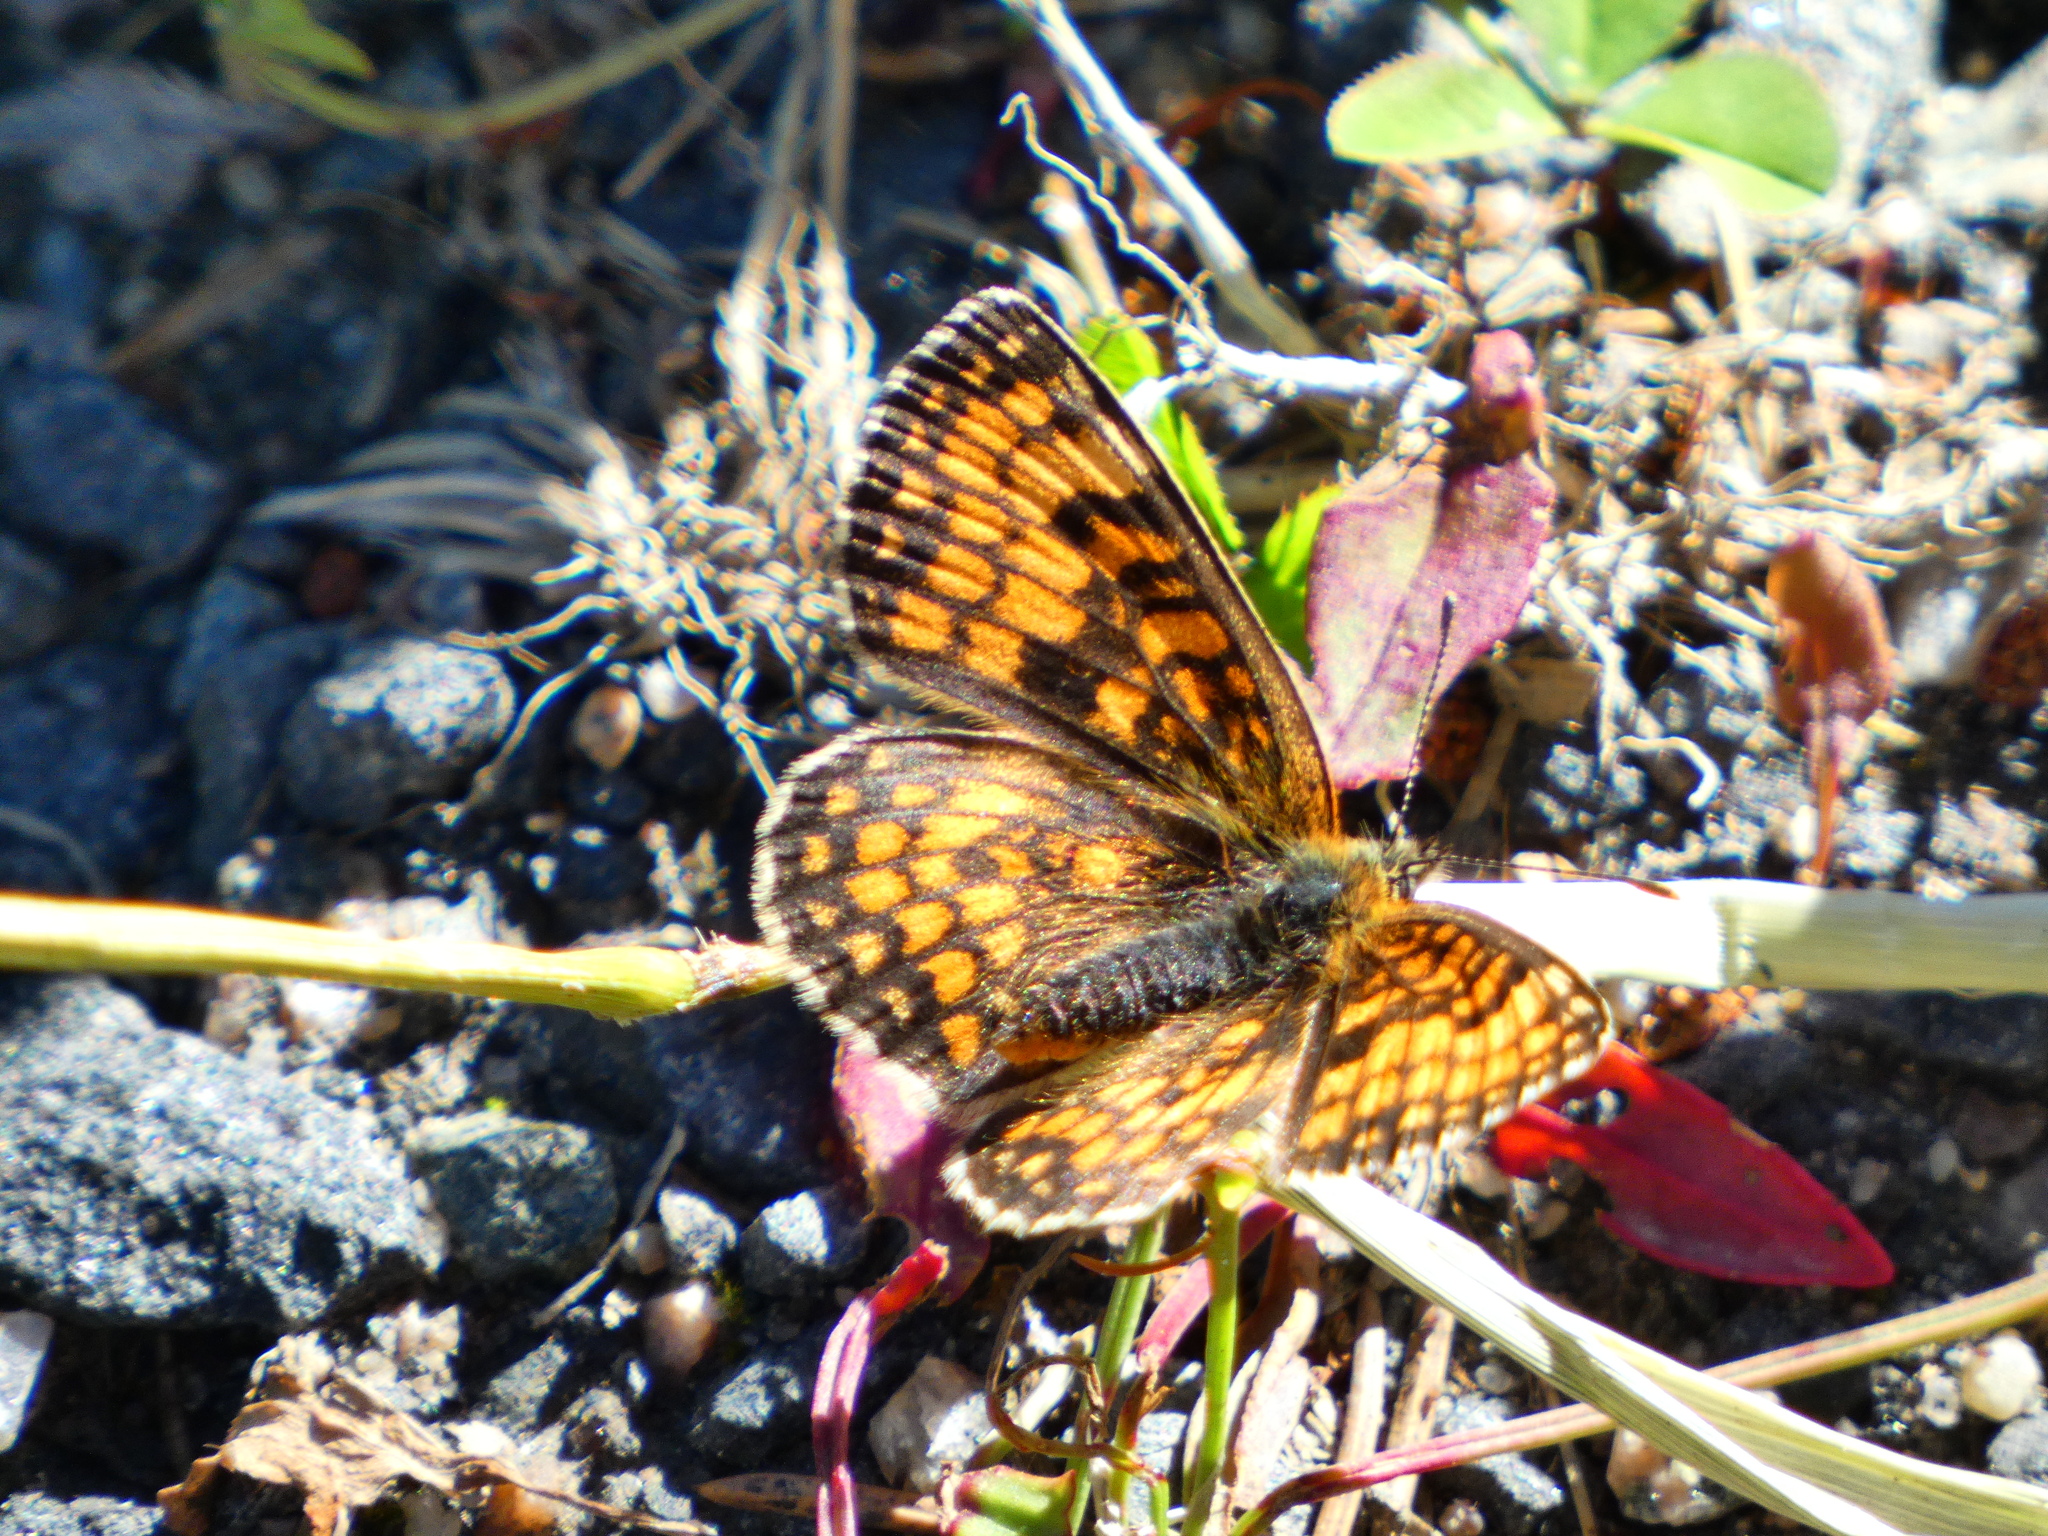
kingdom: Animalia
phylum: Arthropoda
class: Insecta
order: Lepidoptera
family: Nymphalidae
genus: Melitaea
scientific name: Melitaea athalia
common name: Heath fritillary
